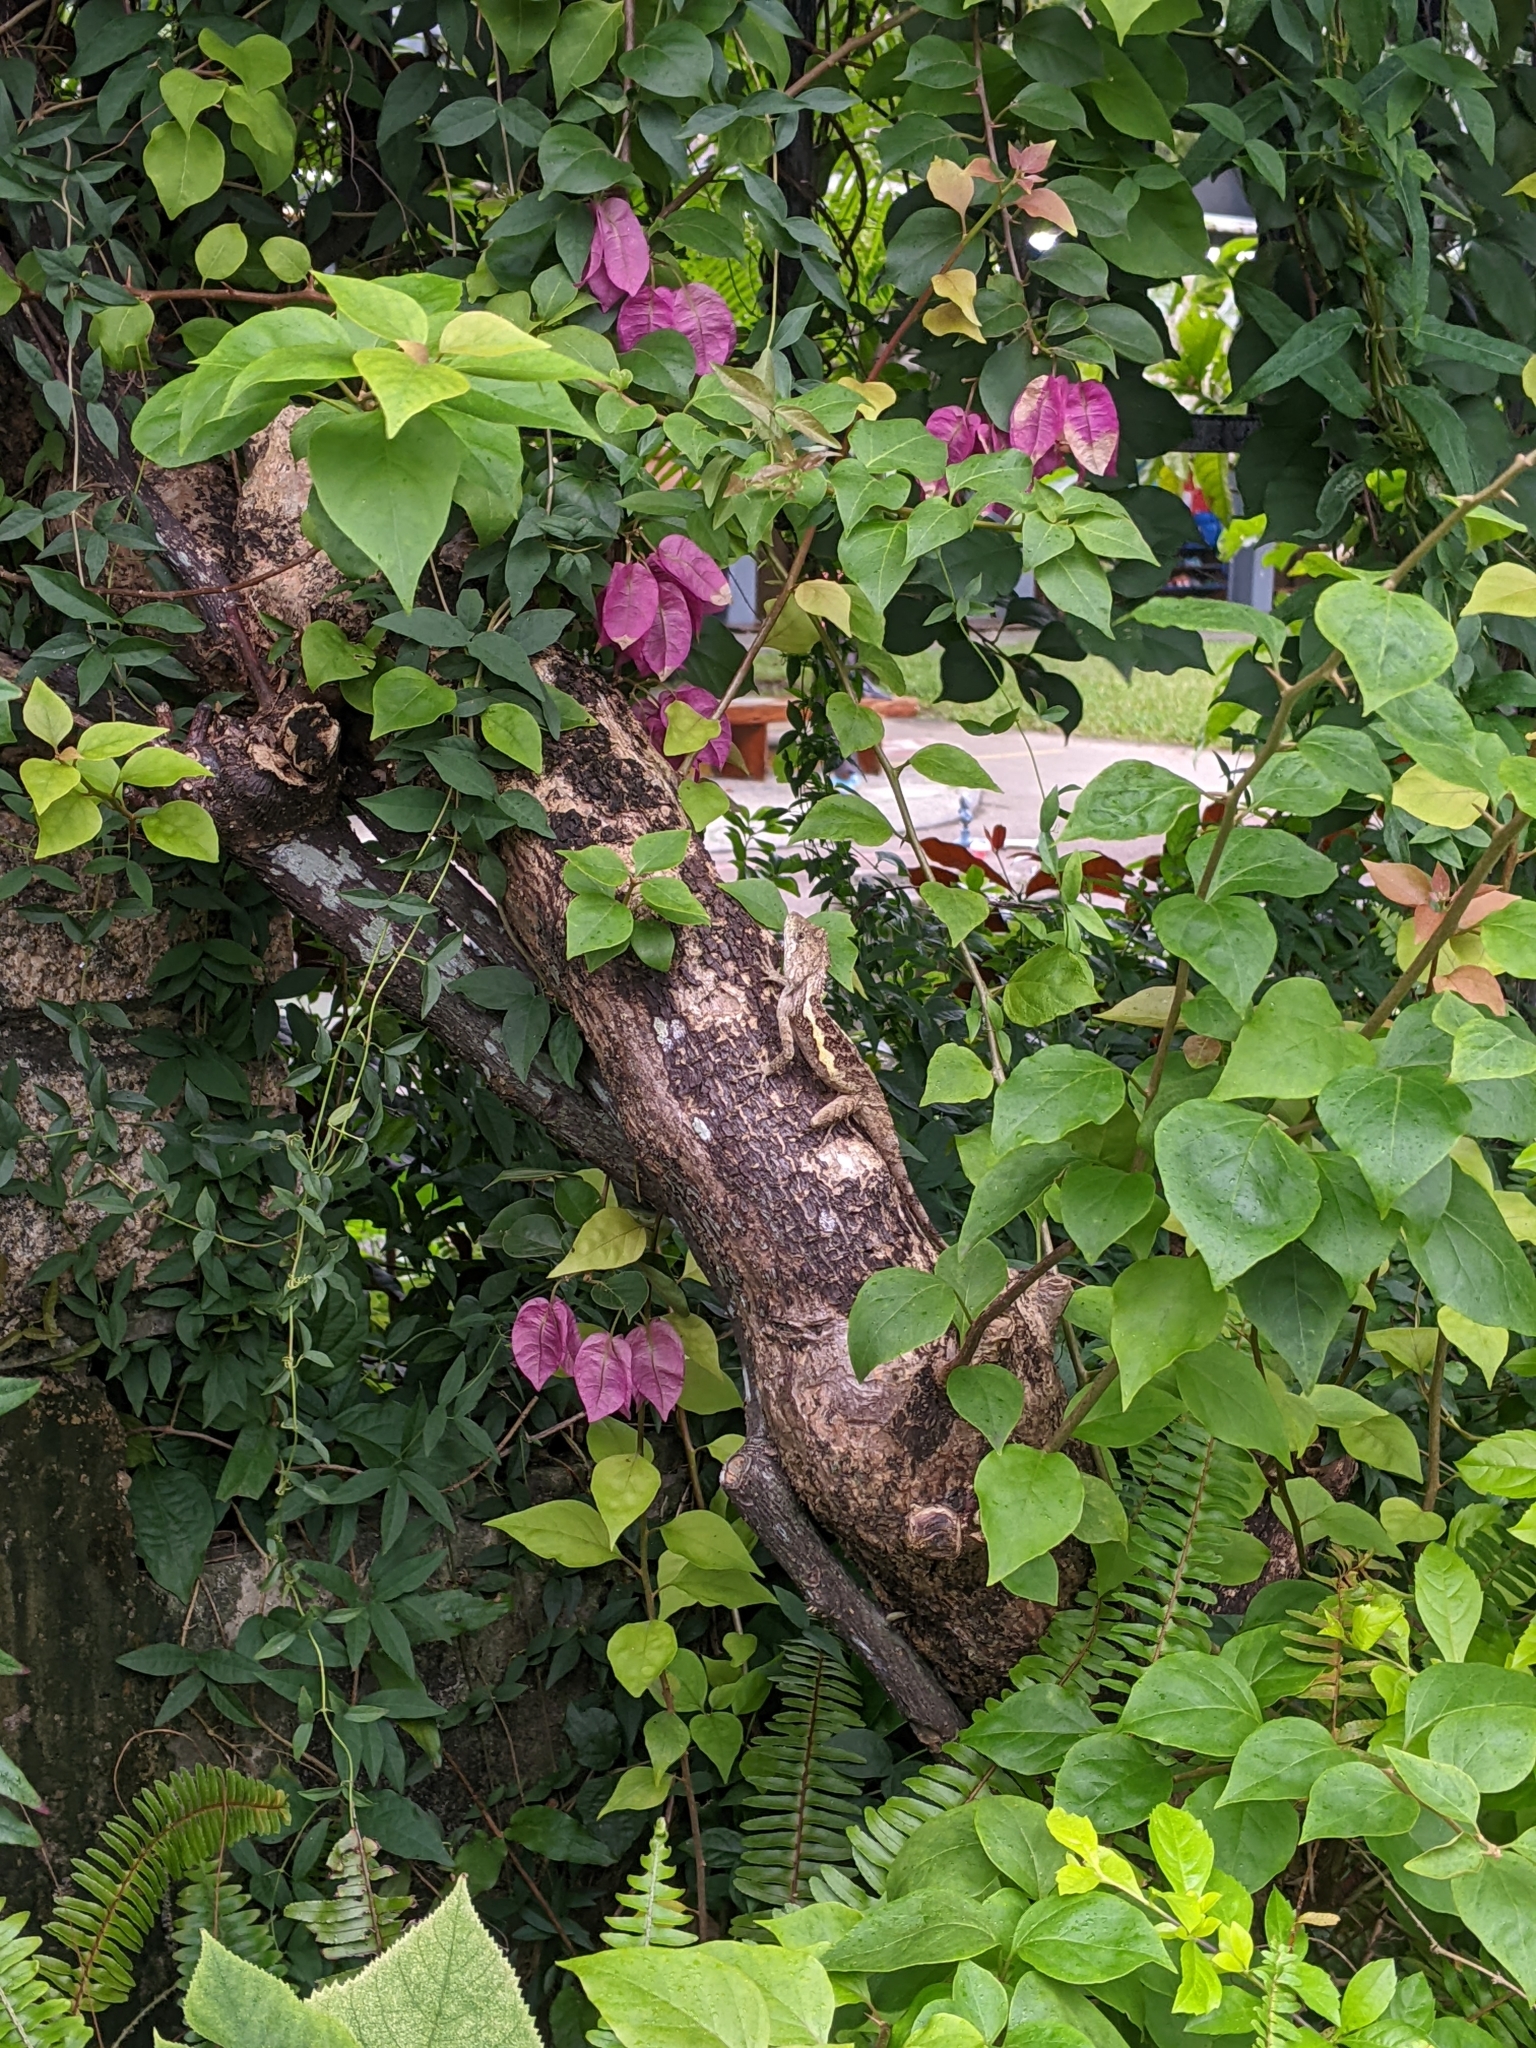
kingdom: Animalia
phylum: Chordata
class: Squamata
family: Agamidae
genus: Diploderma
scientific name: Diploderma swinhonis
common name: Taiwan japalure
